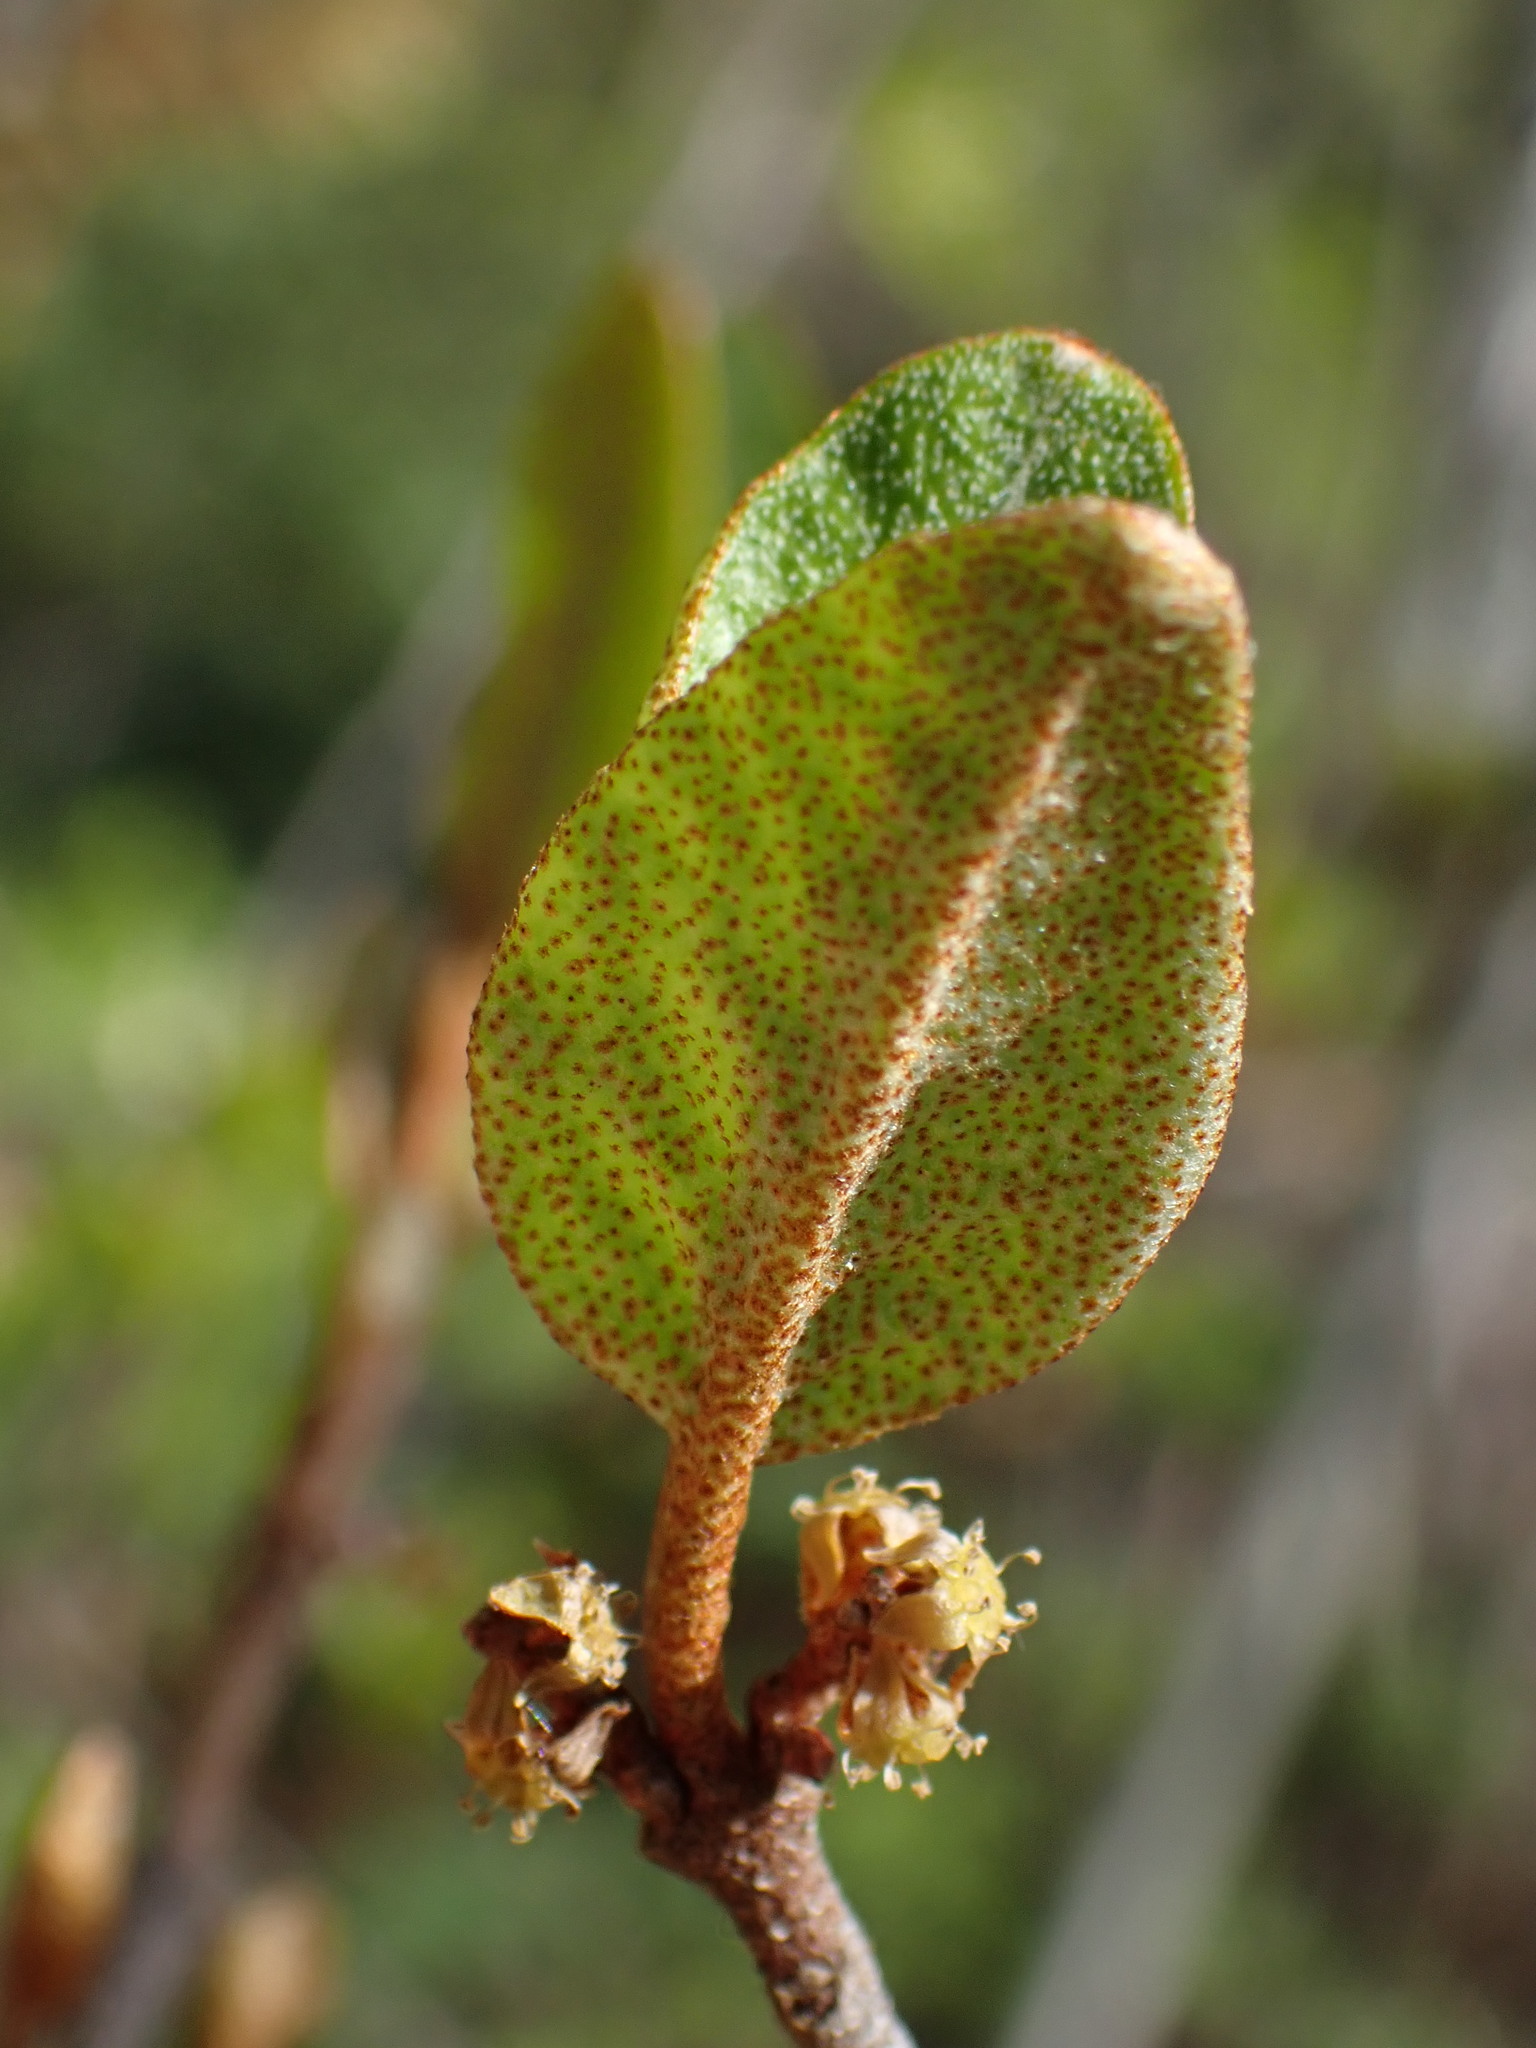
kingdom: Plantae
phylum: Tracheophyta
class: Magnoliopsida
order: Rosales
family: Elaeagnaceae
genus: Shepherdia
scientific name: Shepherdia canadensis
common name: Soapberry
